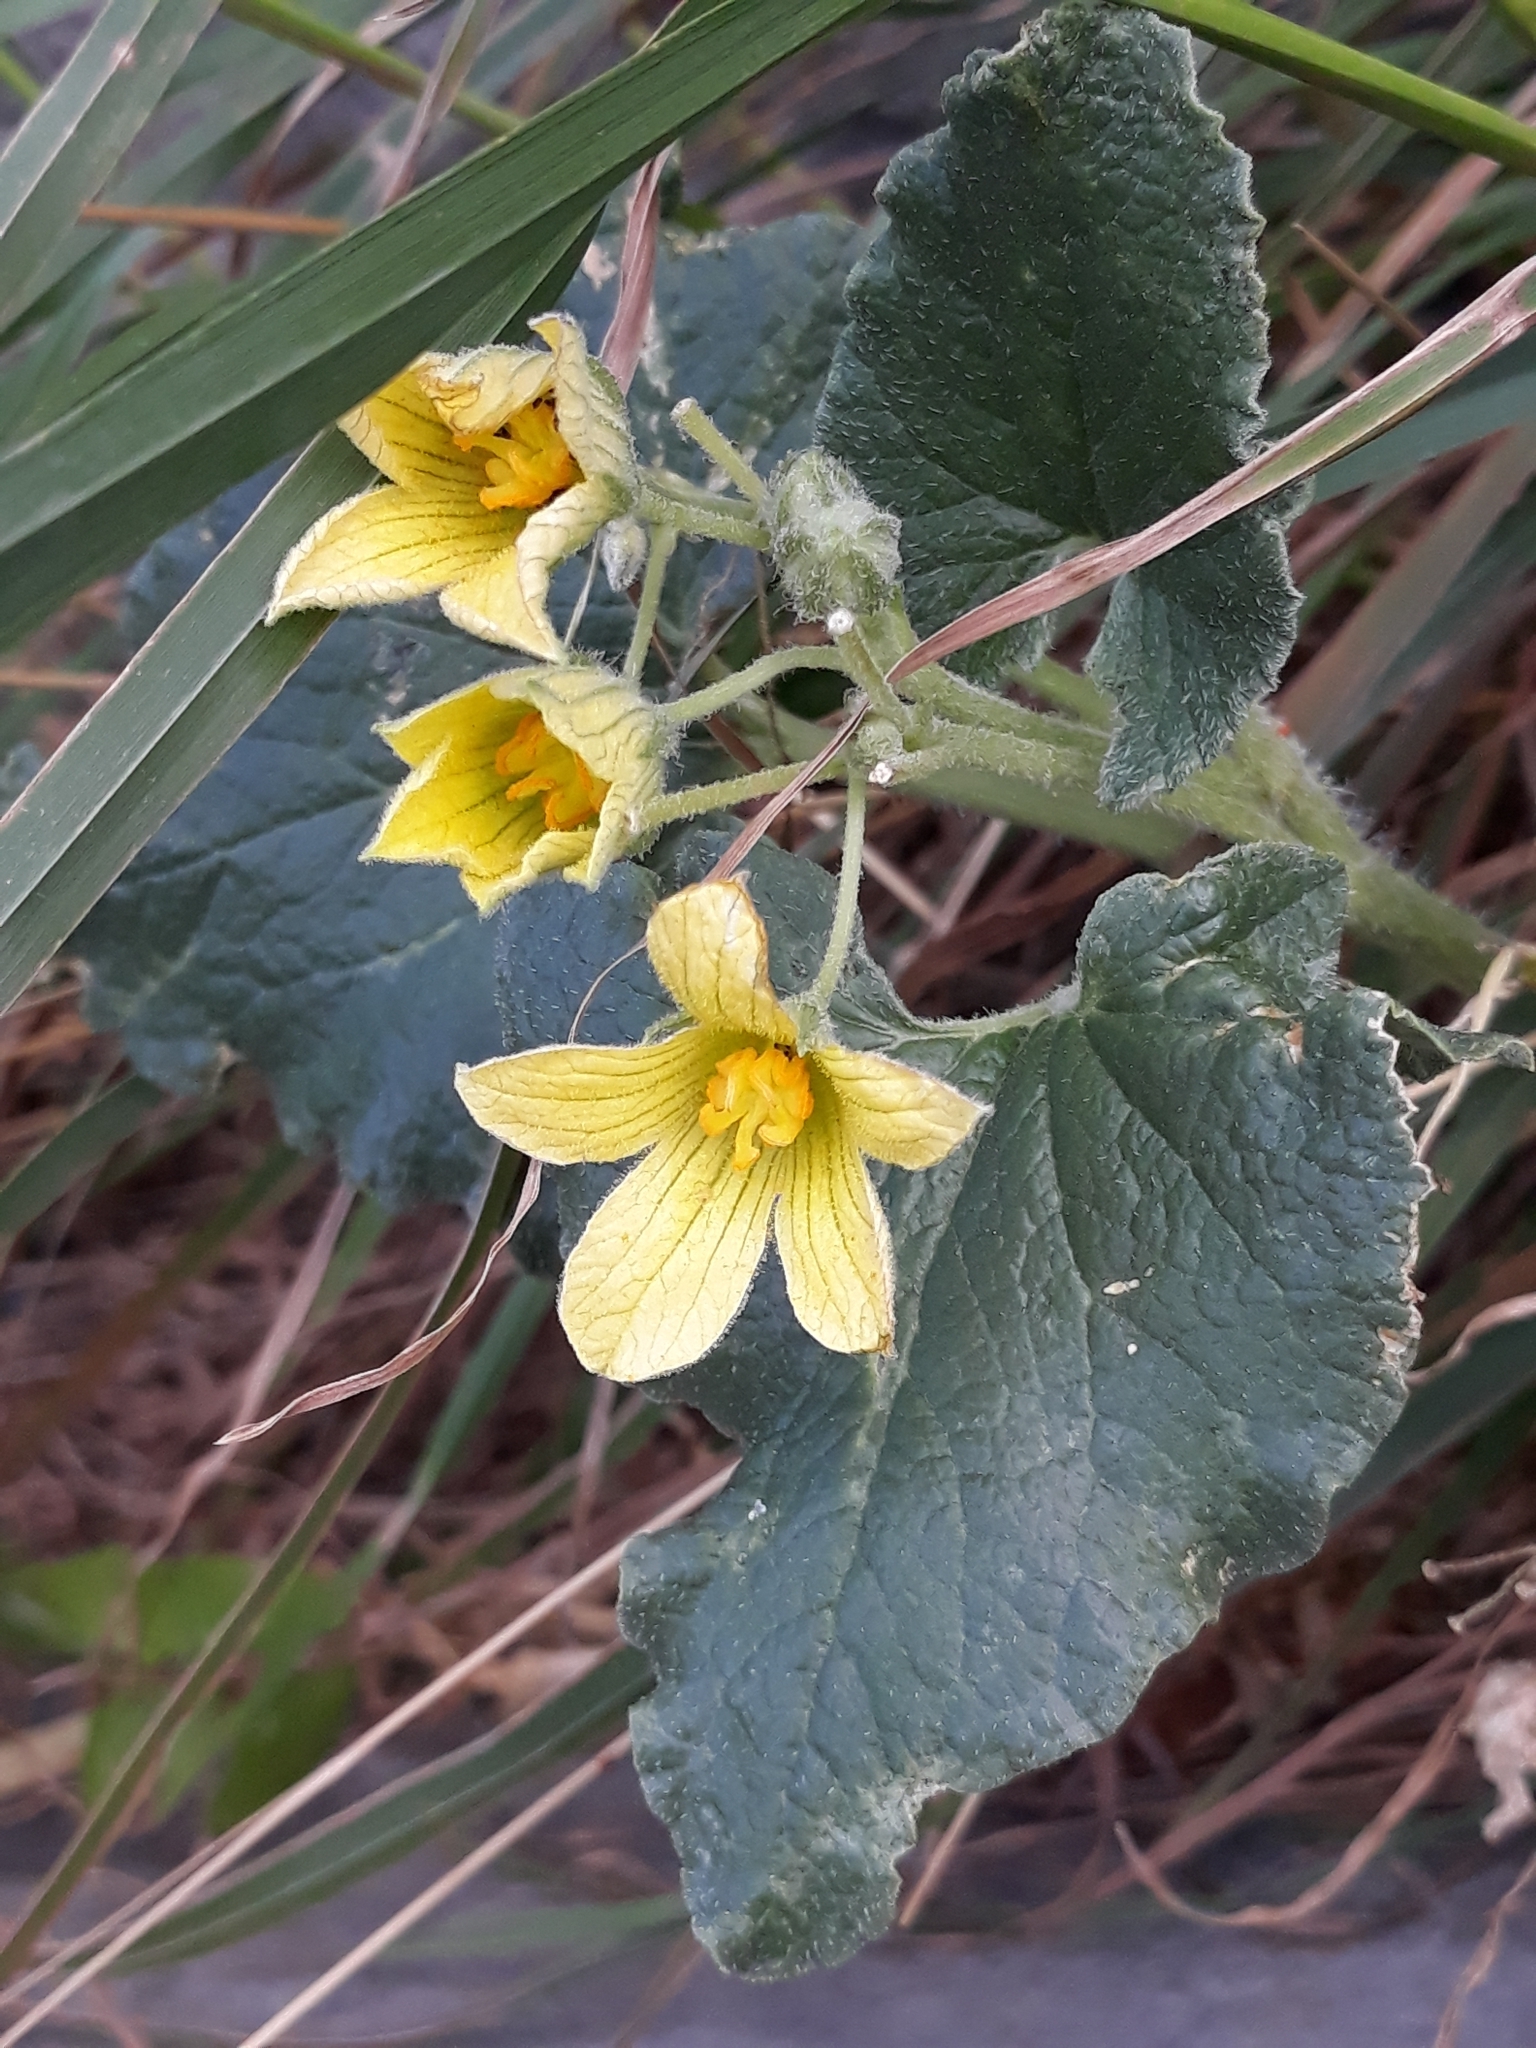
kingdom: Plantae
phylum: Tracheophyta
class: Magnoliopsida
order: Cucurbitales
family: Cucurbitaceae
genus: Ecballium
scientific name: Ecballium elaterium
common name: Squirting cucumber
